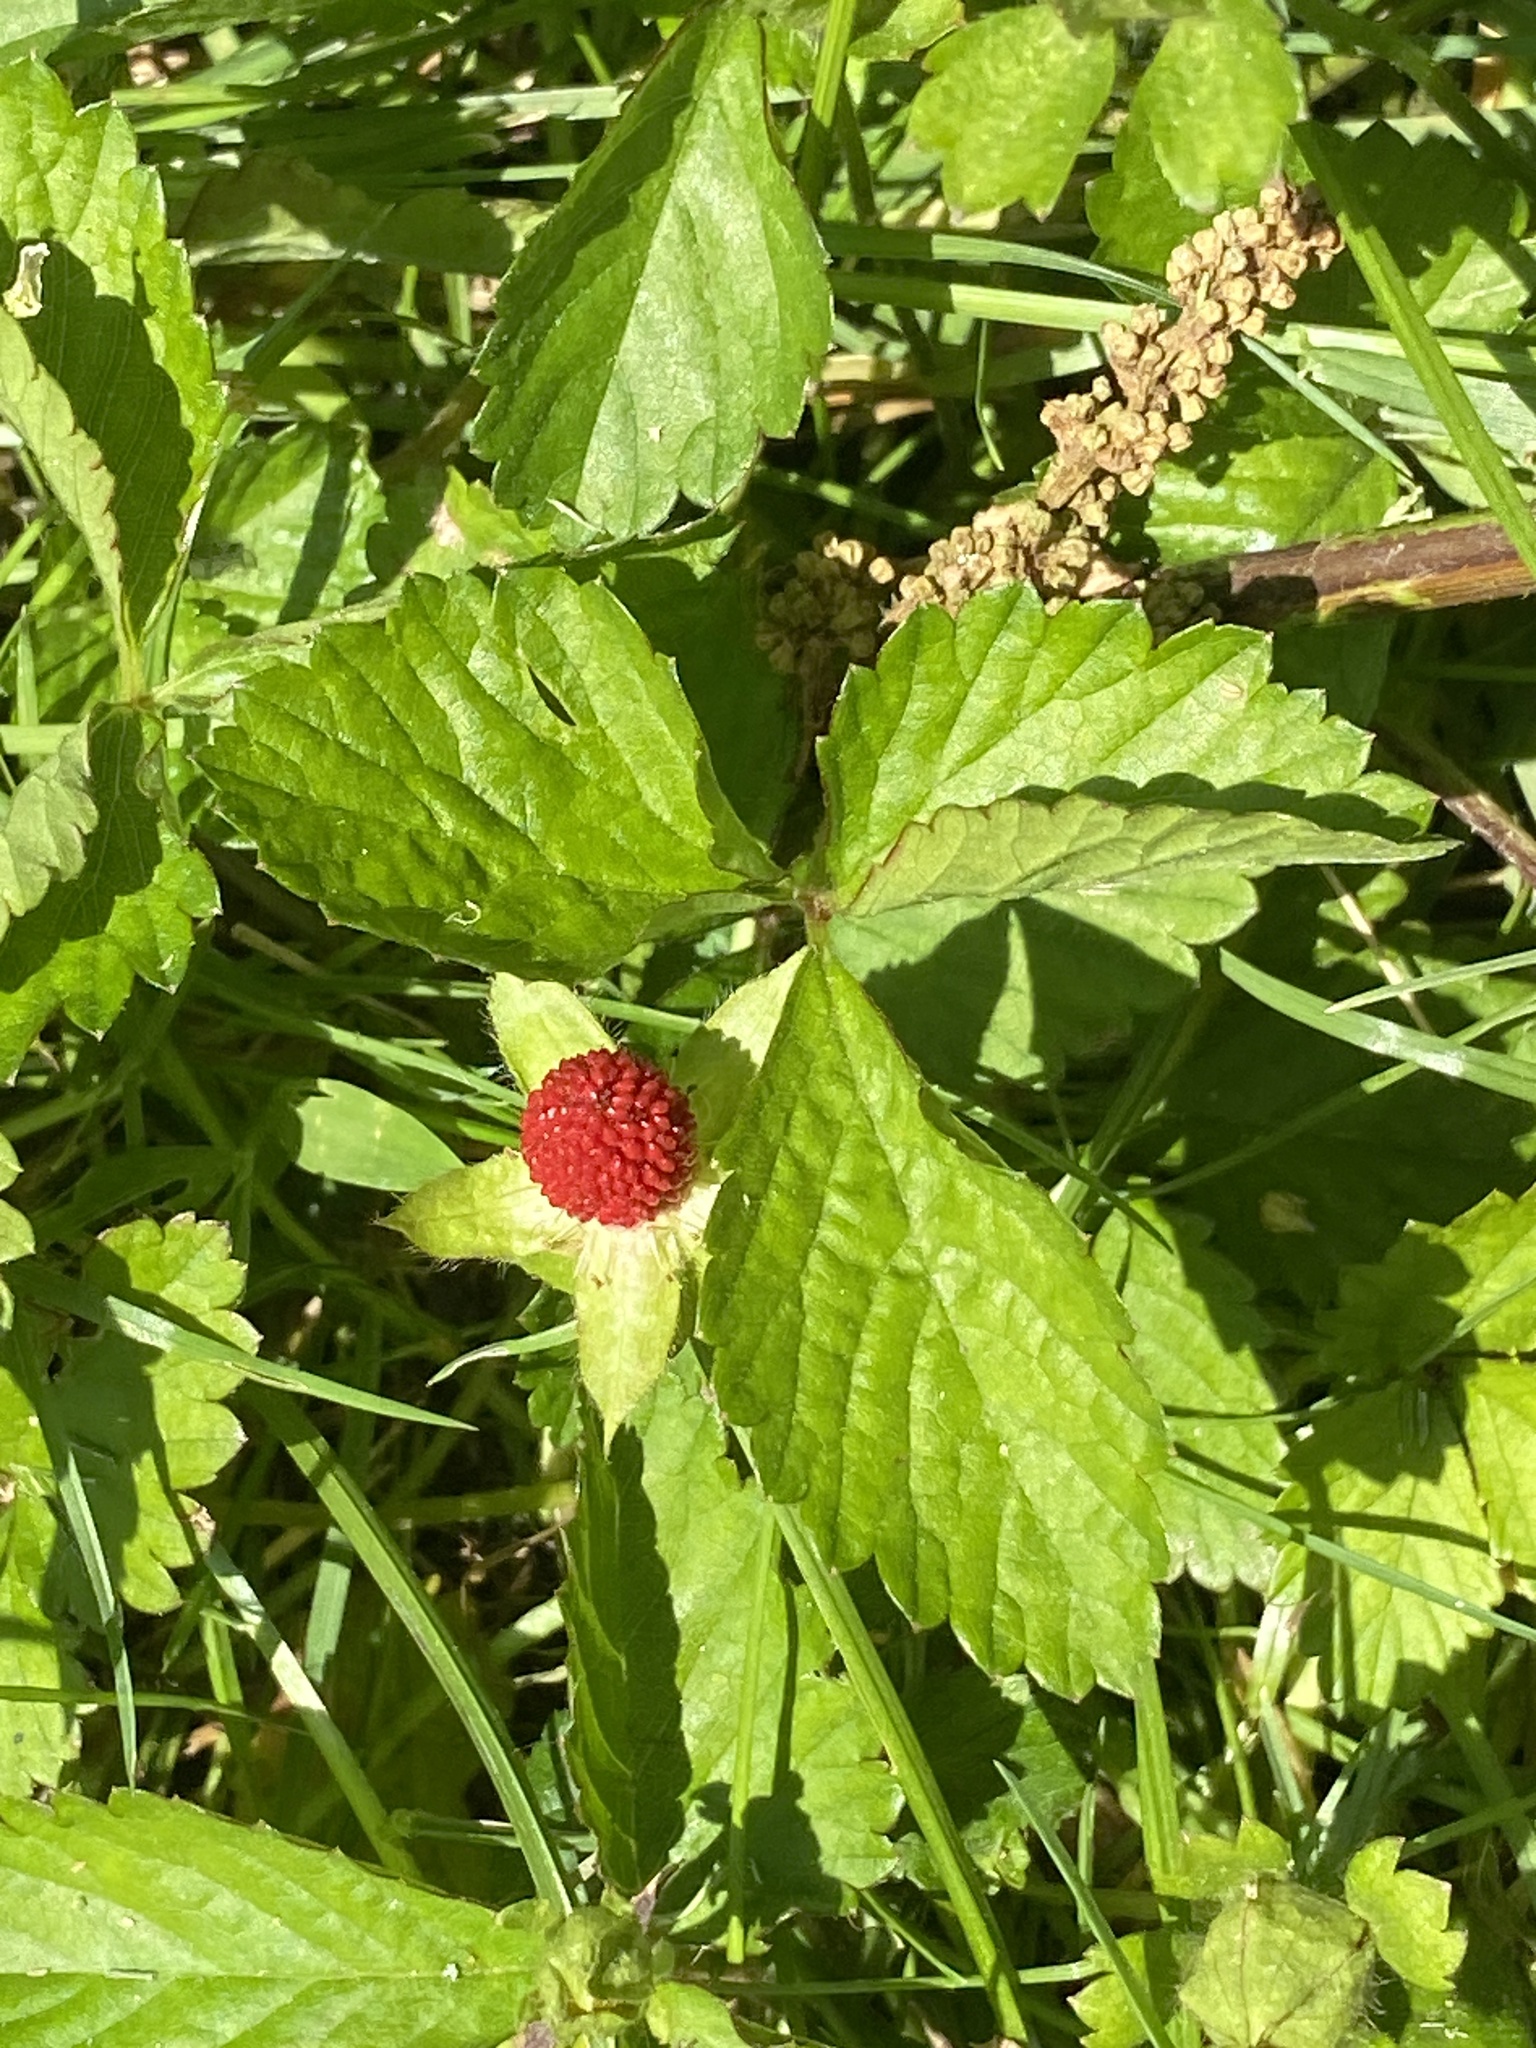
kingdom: Plantae
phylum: Tracheophyta
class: Magnoliopsida
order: Rosales
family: Rosaceae
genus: Potentilla
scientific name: Potentilla indica
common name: Yellow-flowered strawberry
